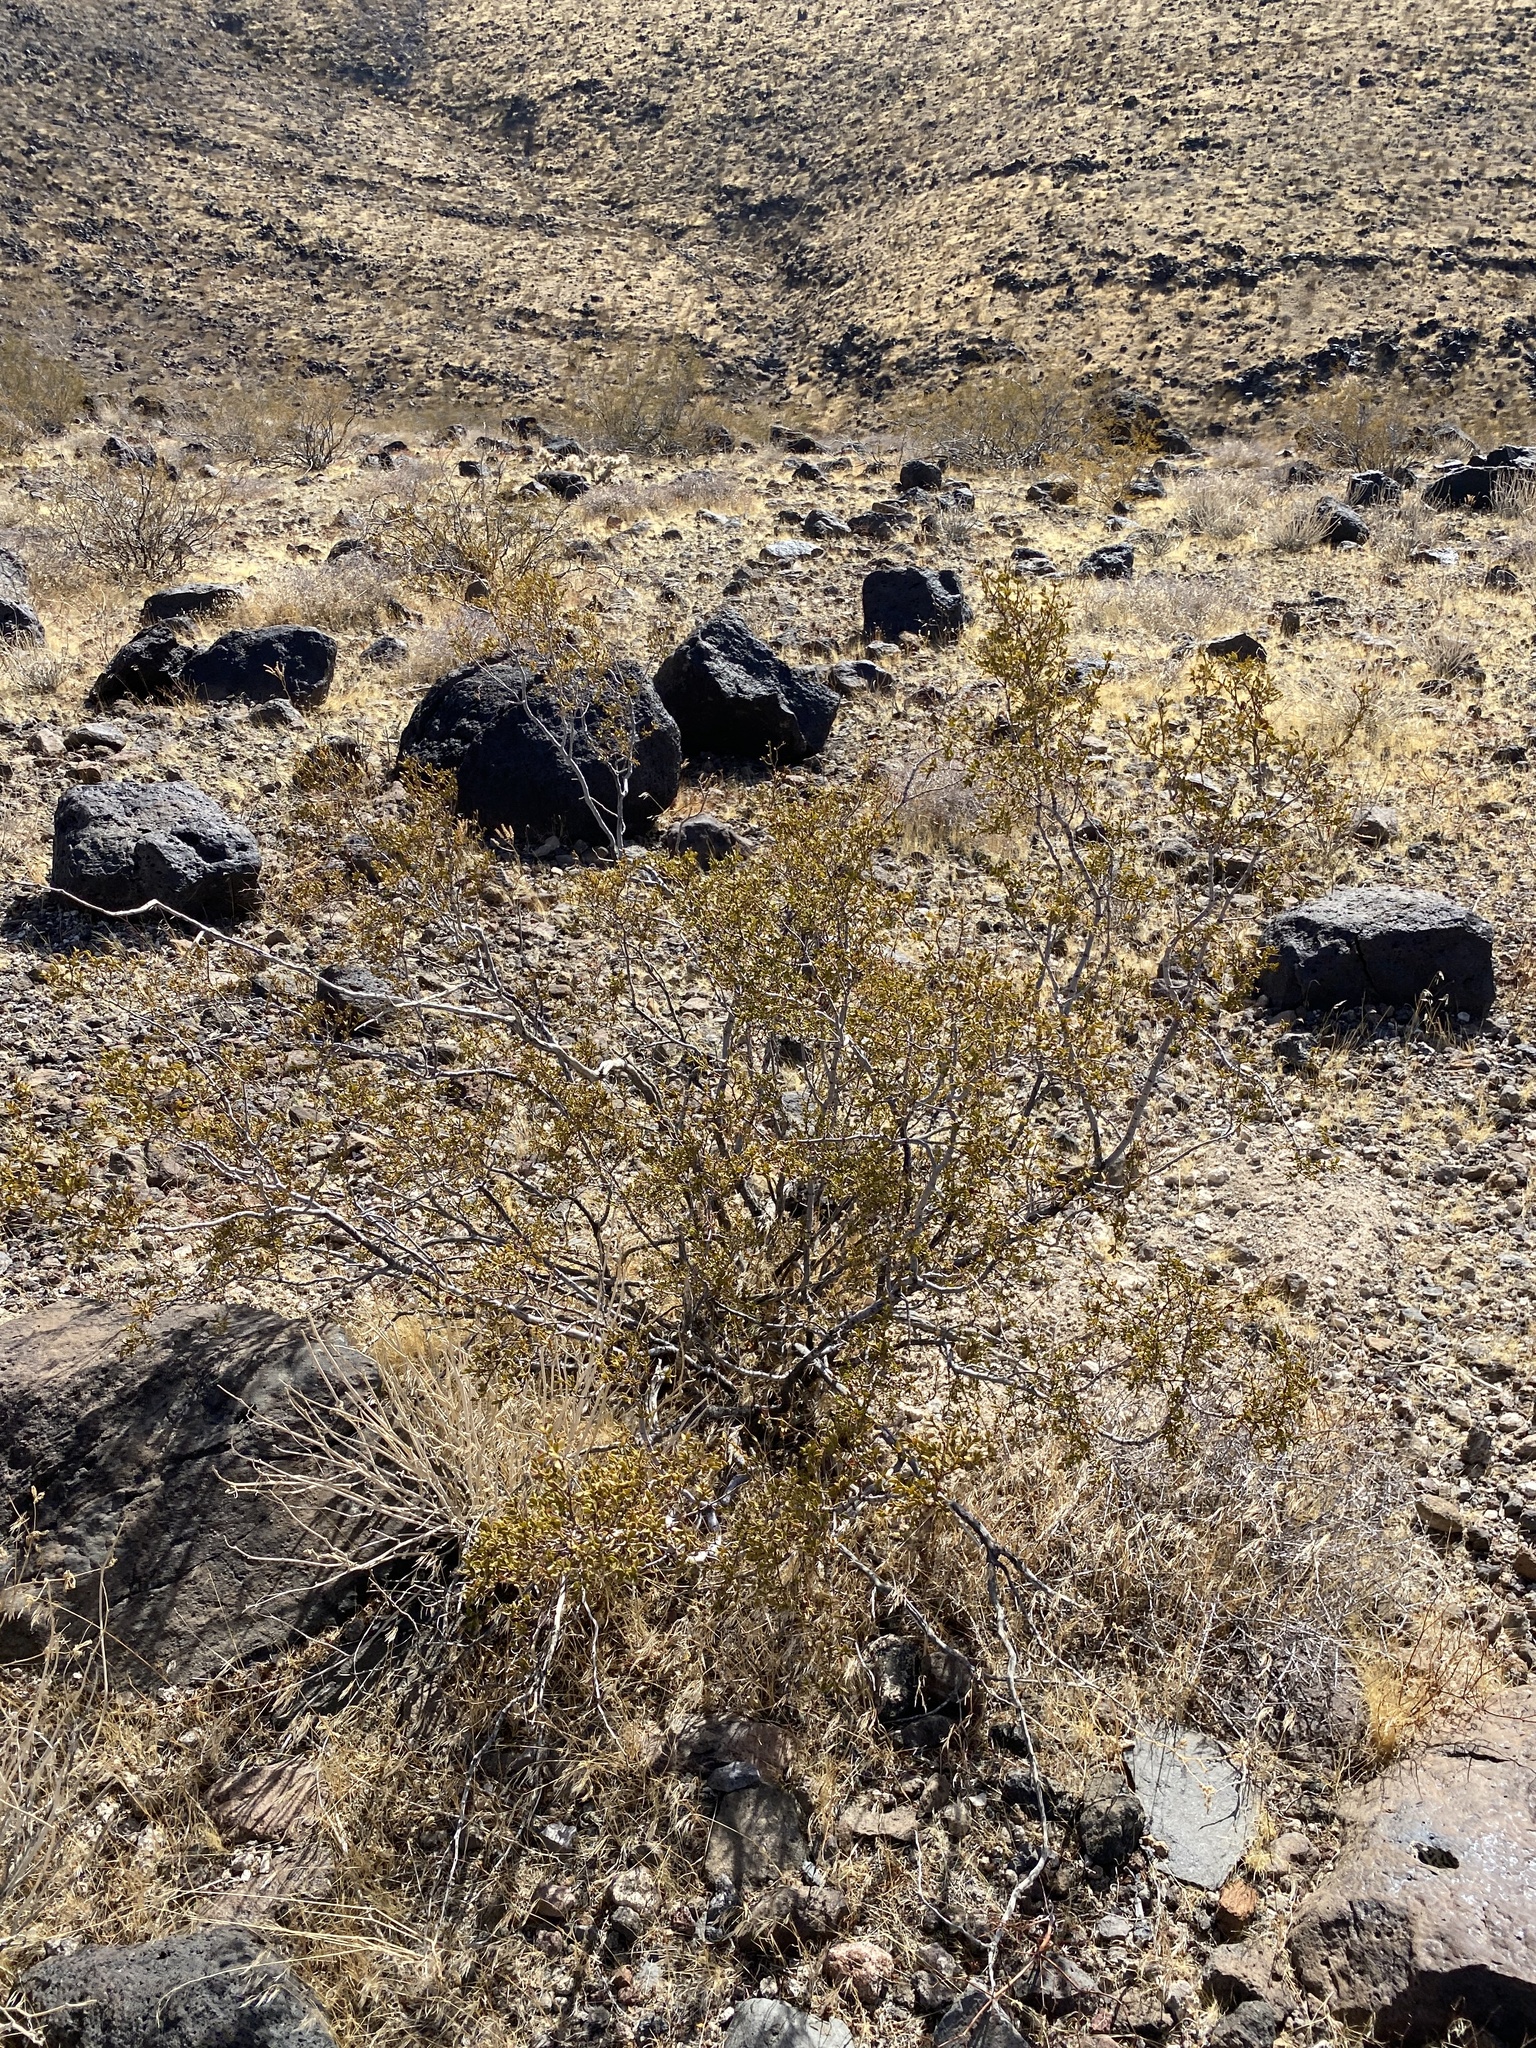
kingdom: Plantae
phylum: Tracheophyta
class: Magnoliopsida
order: Zygophyllales
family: Zygophyllaceae
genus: Larrea
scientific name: Larrea tridentata
